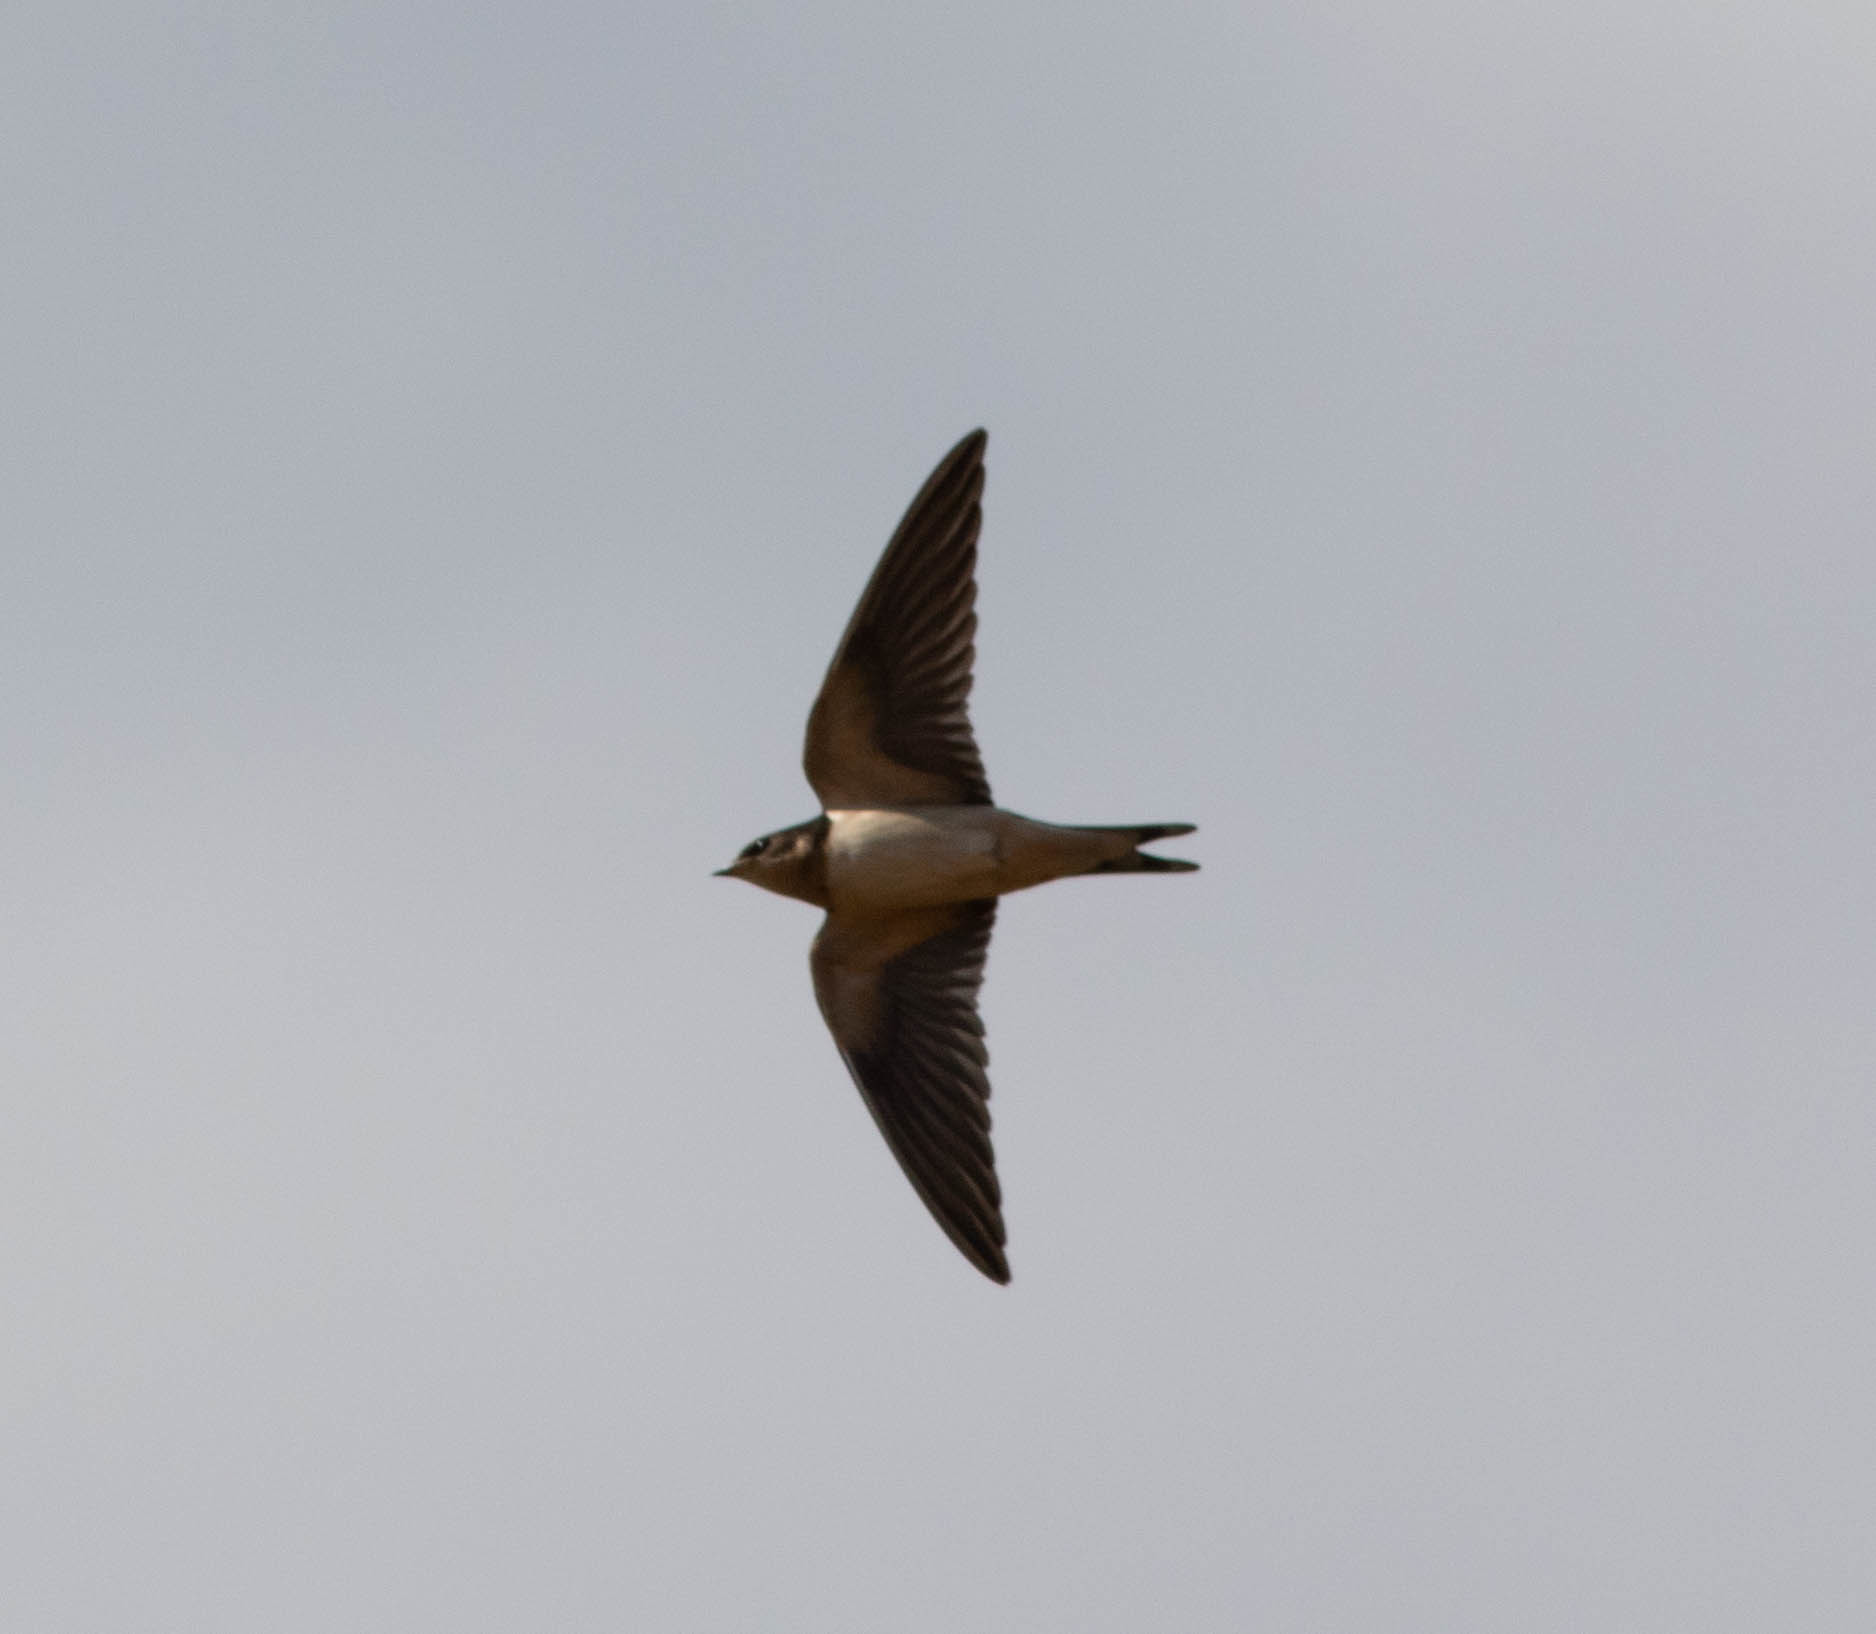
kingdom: Animalia
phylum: Chordata
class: Aves
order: Passeriformes
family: Hirundinidae
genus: Hirundo
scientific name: Hirundo rustica
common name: Barn swallow
